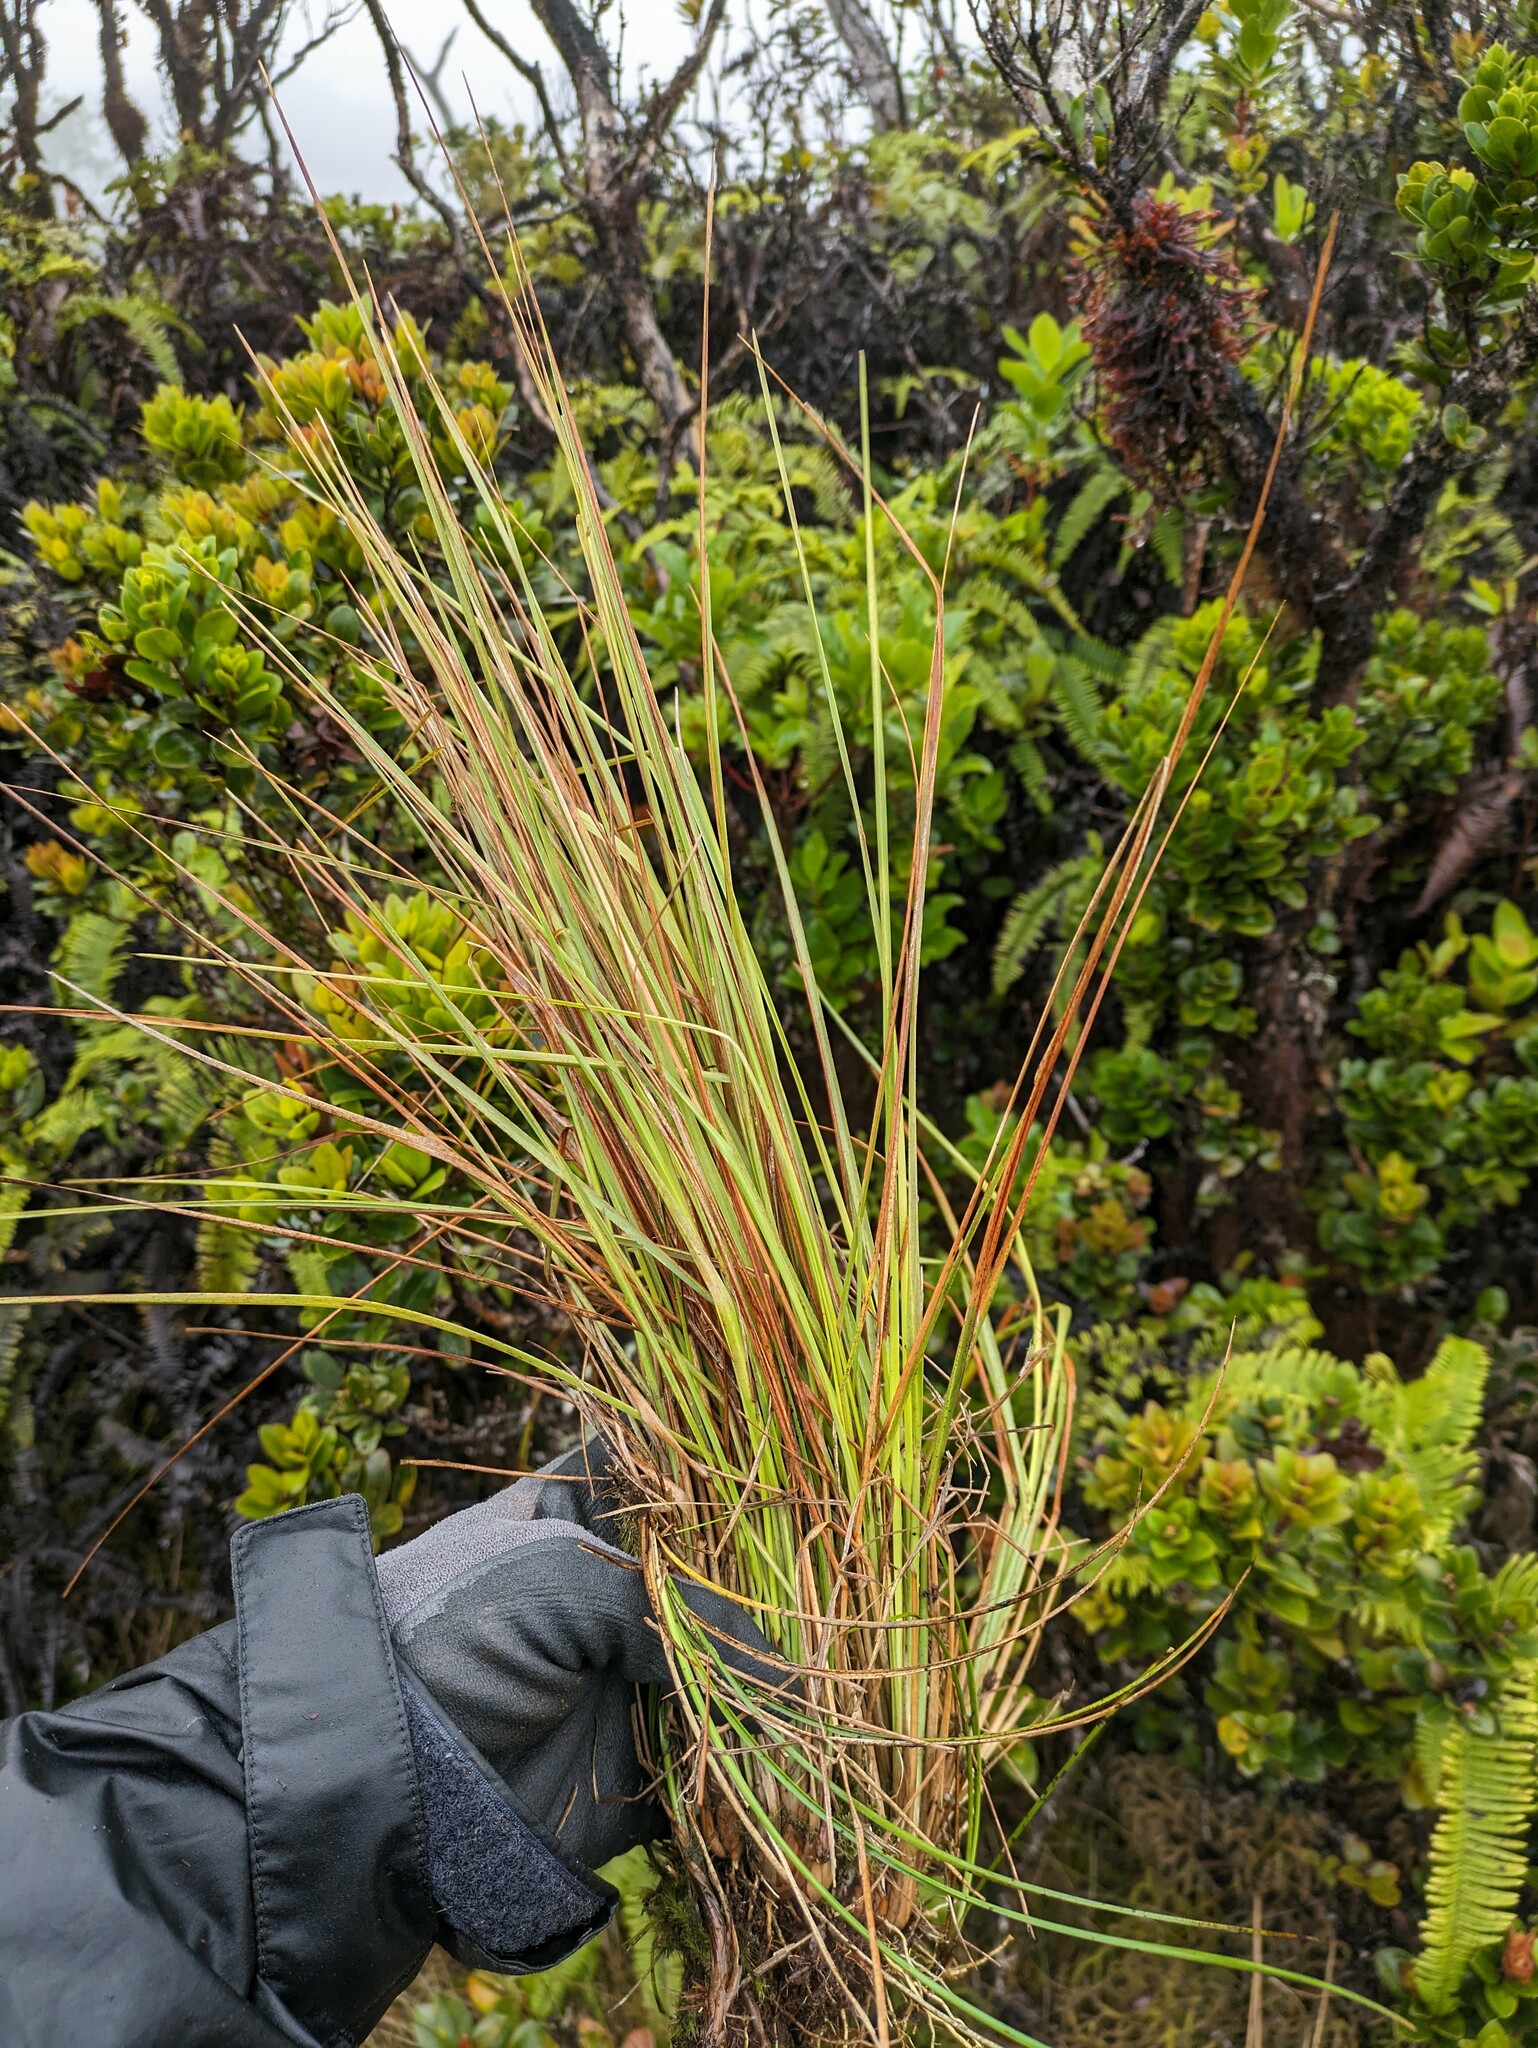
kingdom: Plantae
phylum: Tracheophyta
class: Liliopsida
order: Poales
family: Poaceae
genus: Andropogon
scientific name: Andropogon bicornis
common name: West indian foxtail grass
